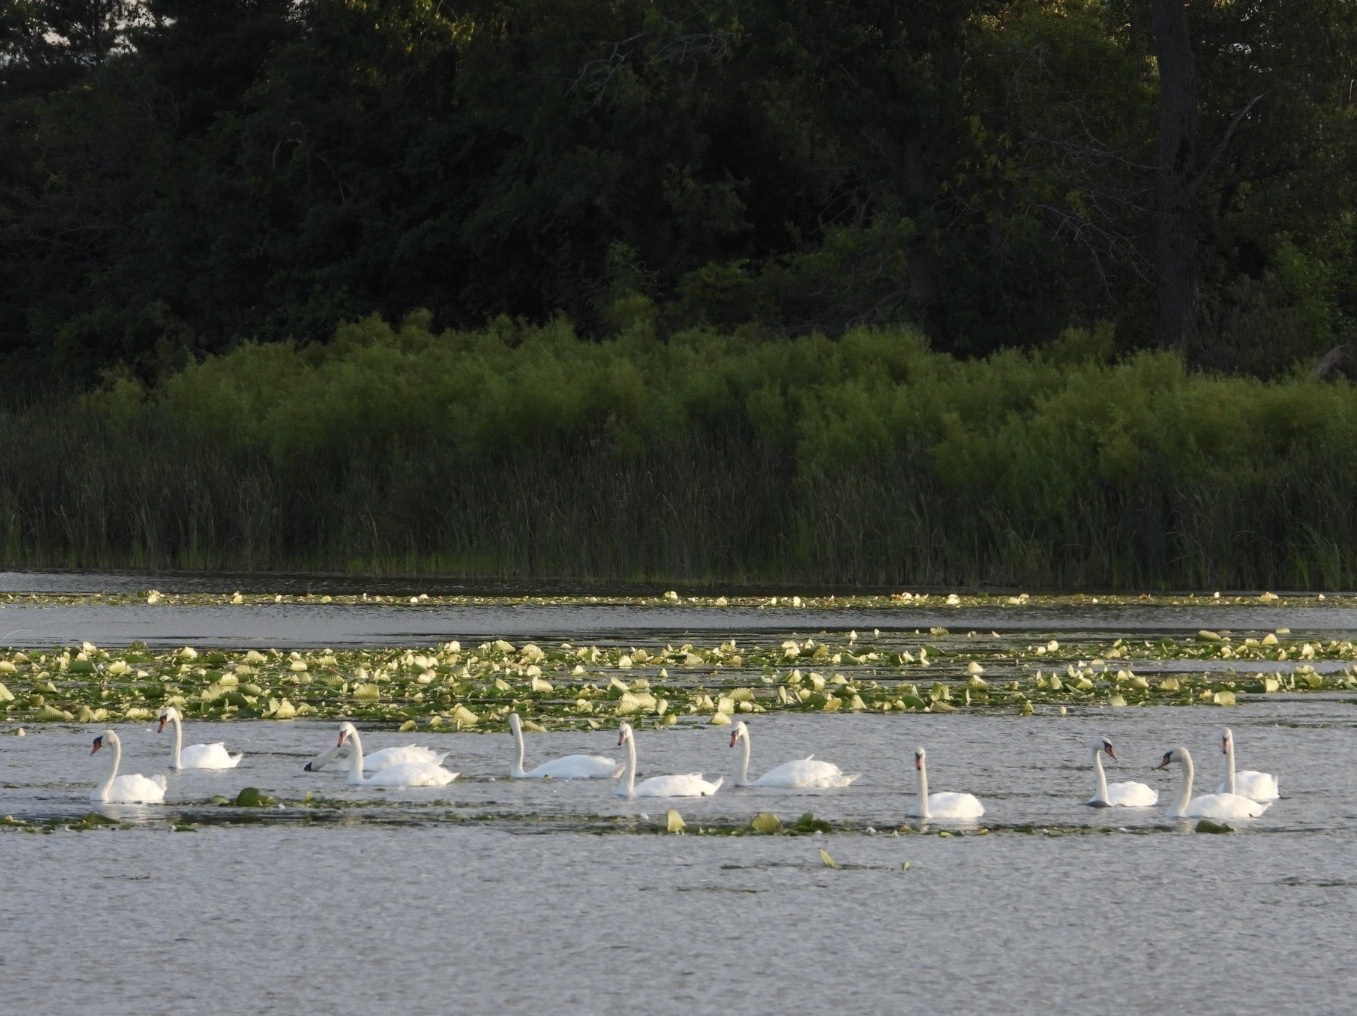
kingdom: Animalia
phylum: Chordata
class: Aves
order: Anseriformes
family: Anatidae
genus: Cygnus
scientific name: Cygnus olor
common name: Mute swan
